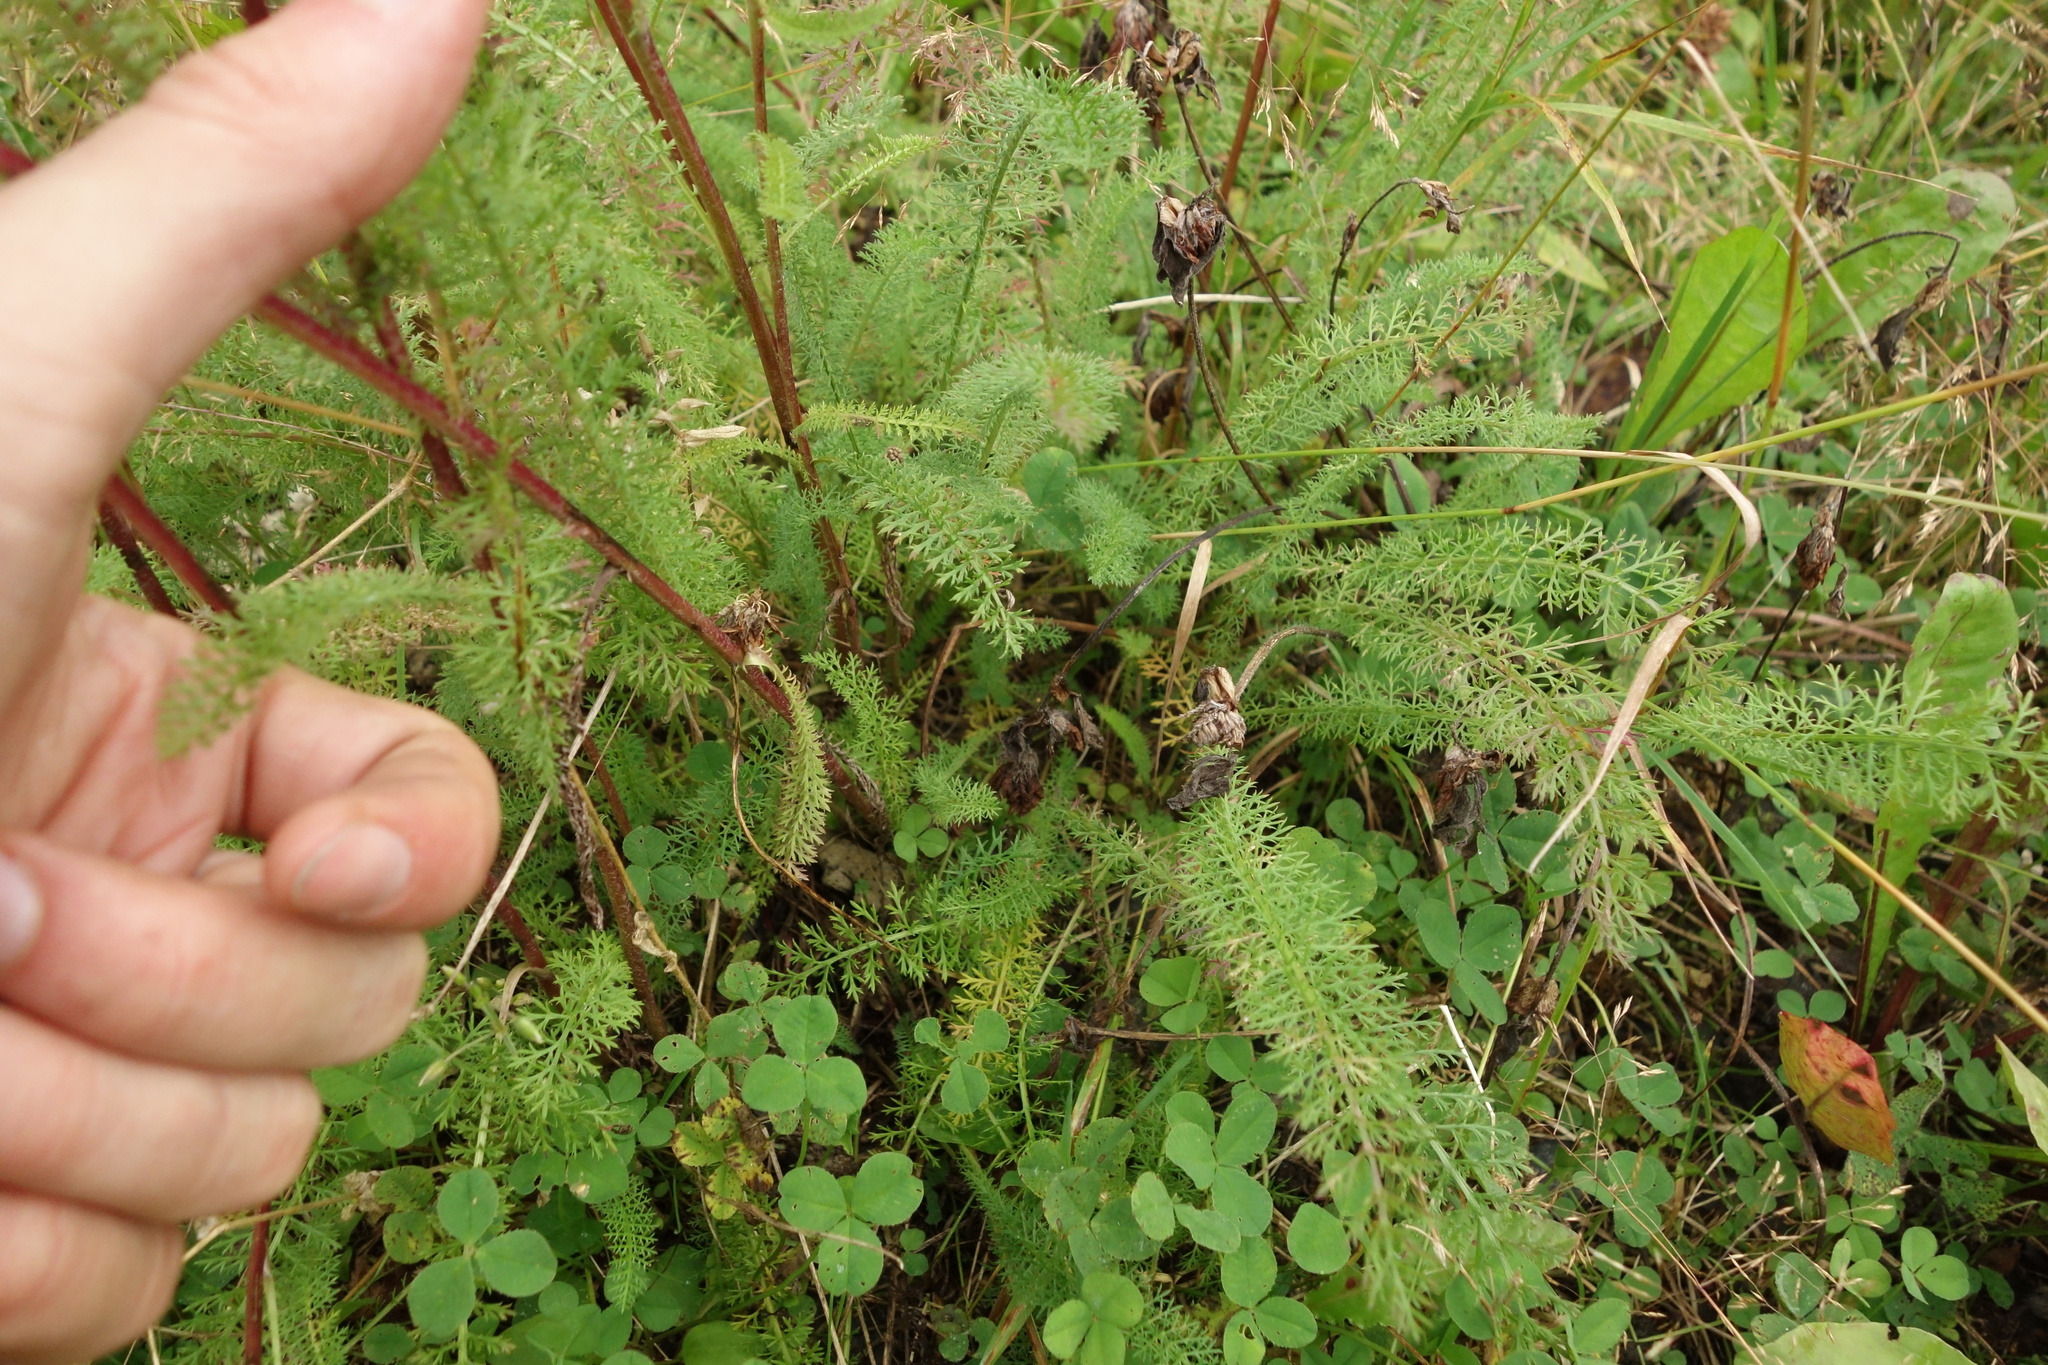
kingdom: Plantae
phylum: Tracheophyta
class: Magnoliopsida
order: Asterales
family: Asteraceae
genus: Achillea
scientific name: Achillea millefolium
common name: Yarrow
